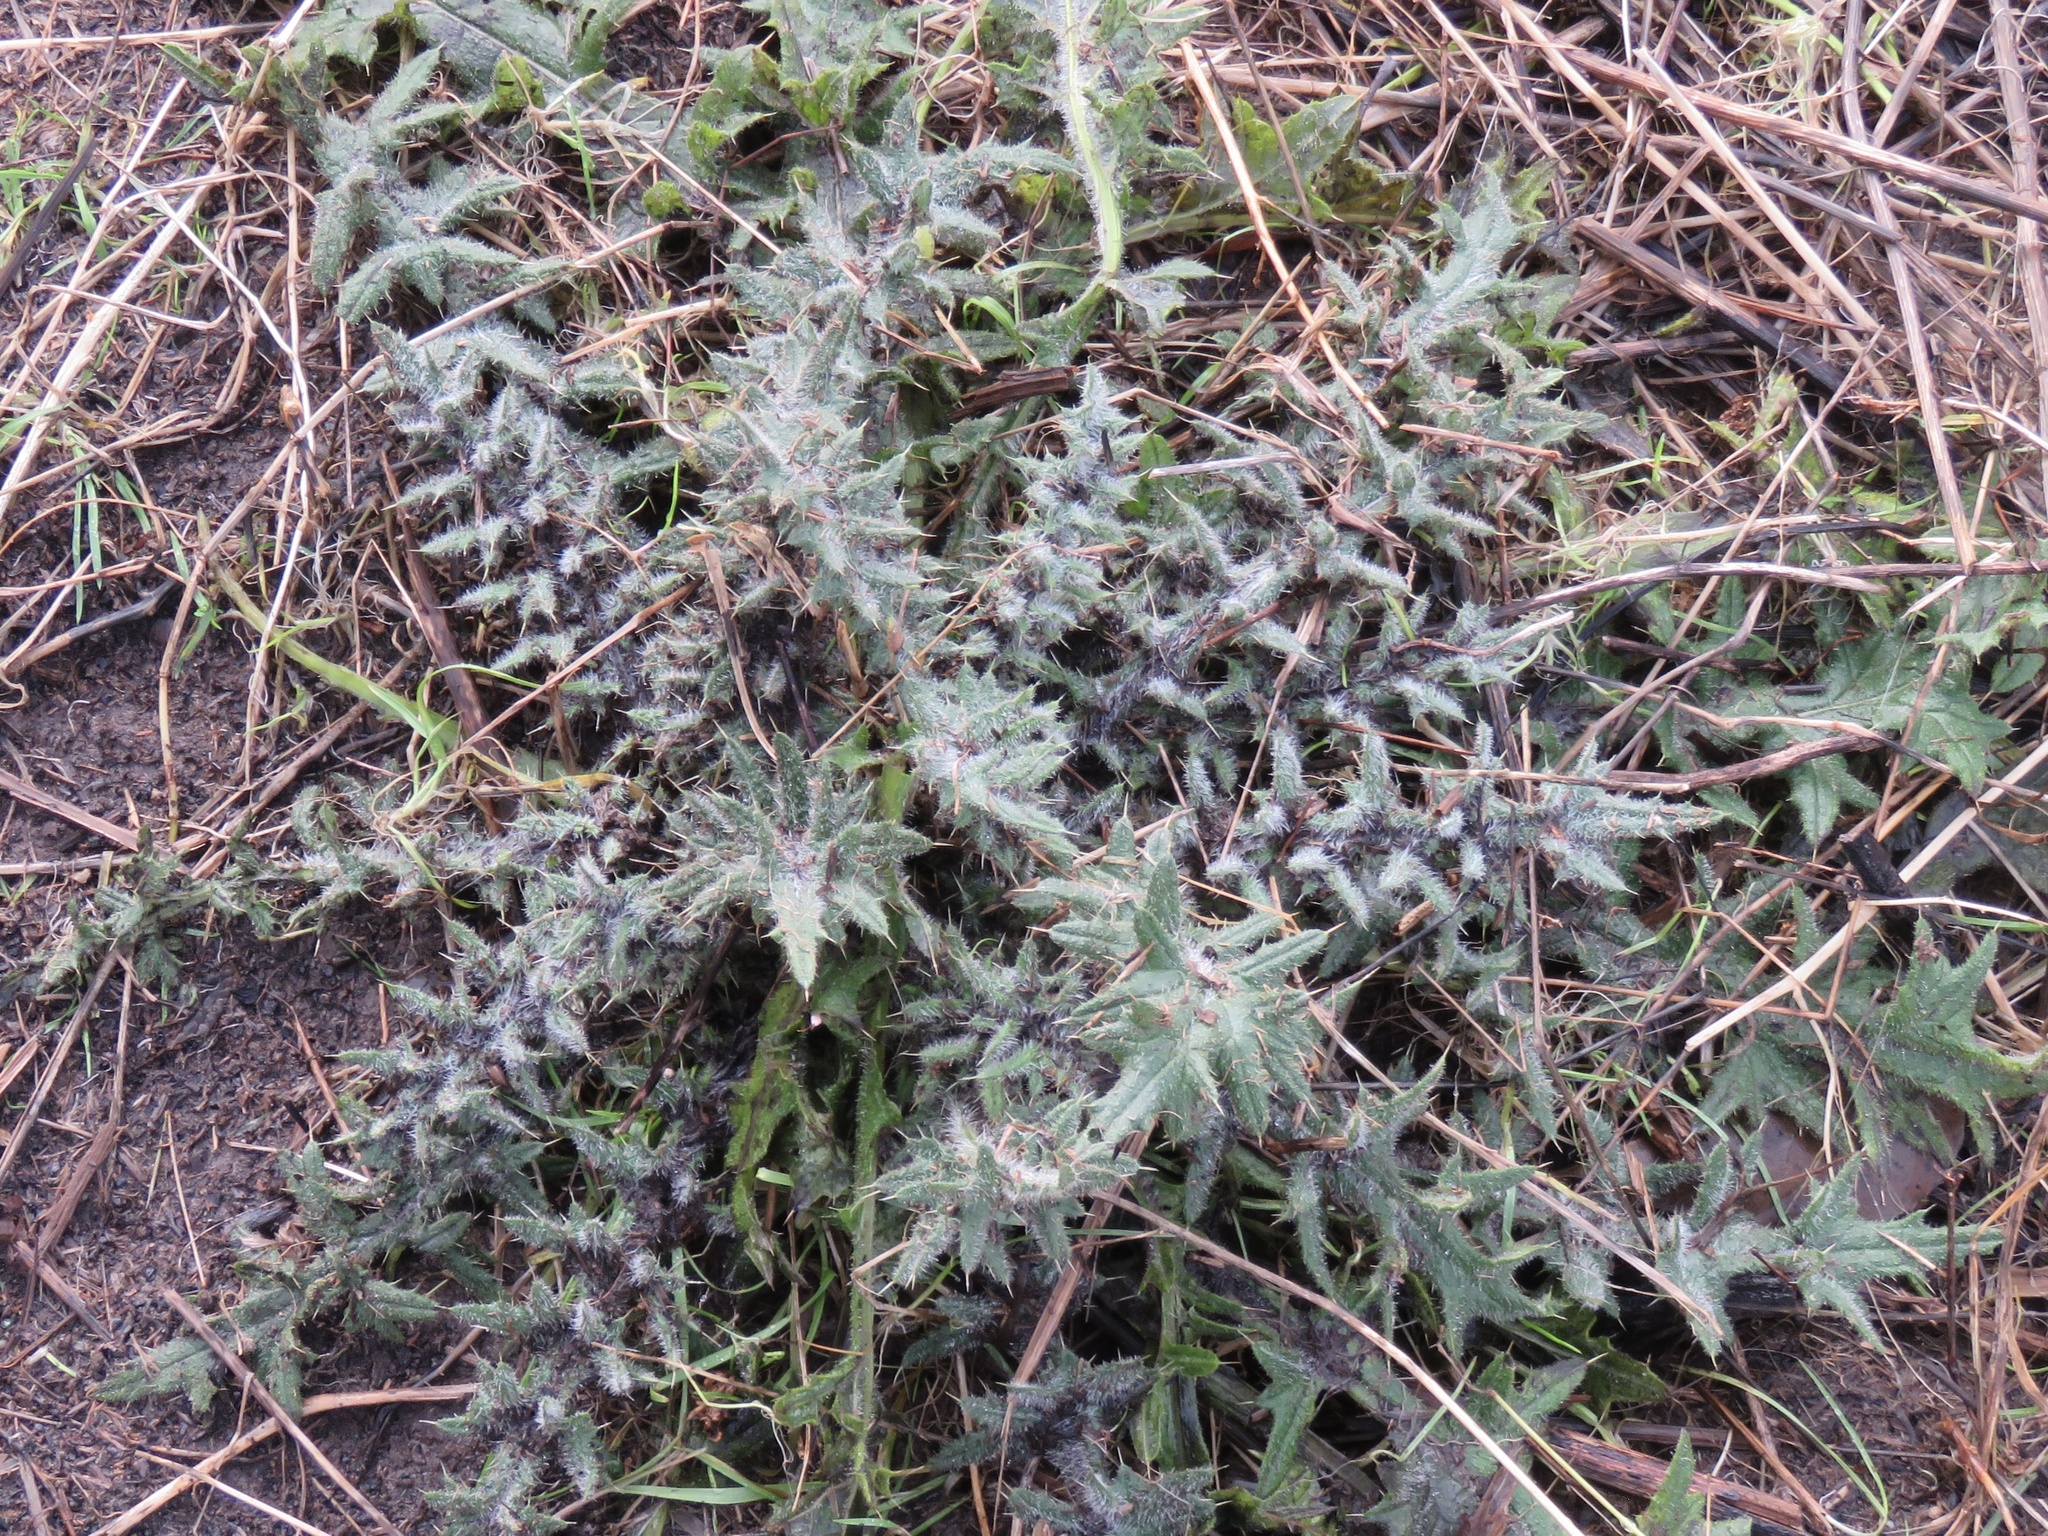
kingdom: Plantae
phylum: Tracheophyta
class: Magnoliopsida
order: Asterales
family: Asteraceae
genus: Cirsium
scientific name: Cirsium vulgare
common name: Bull thistle
